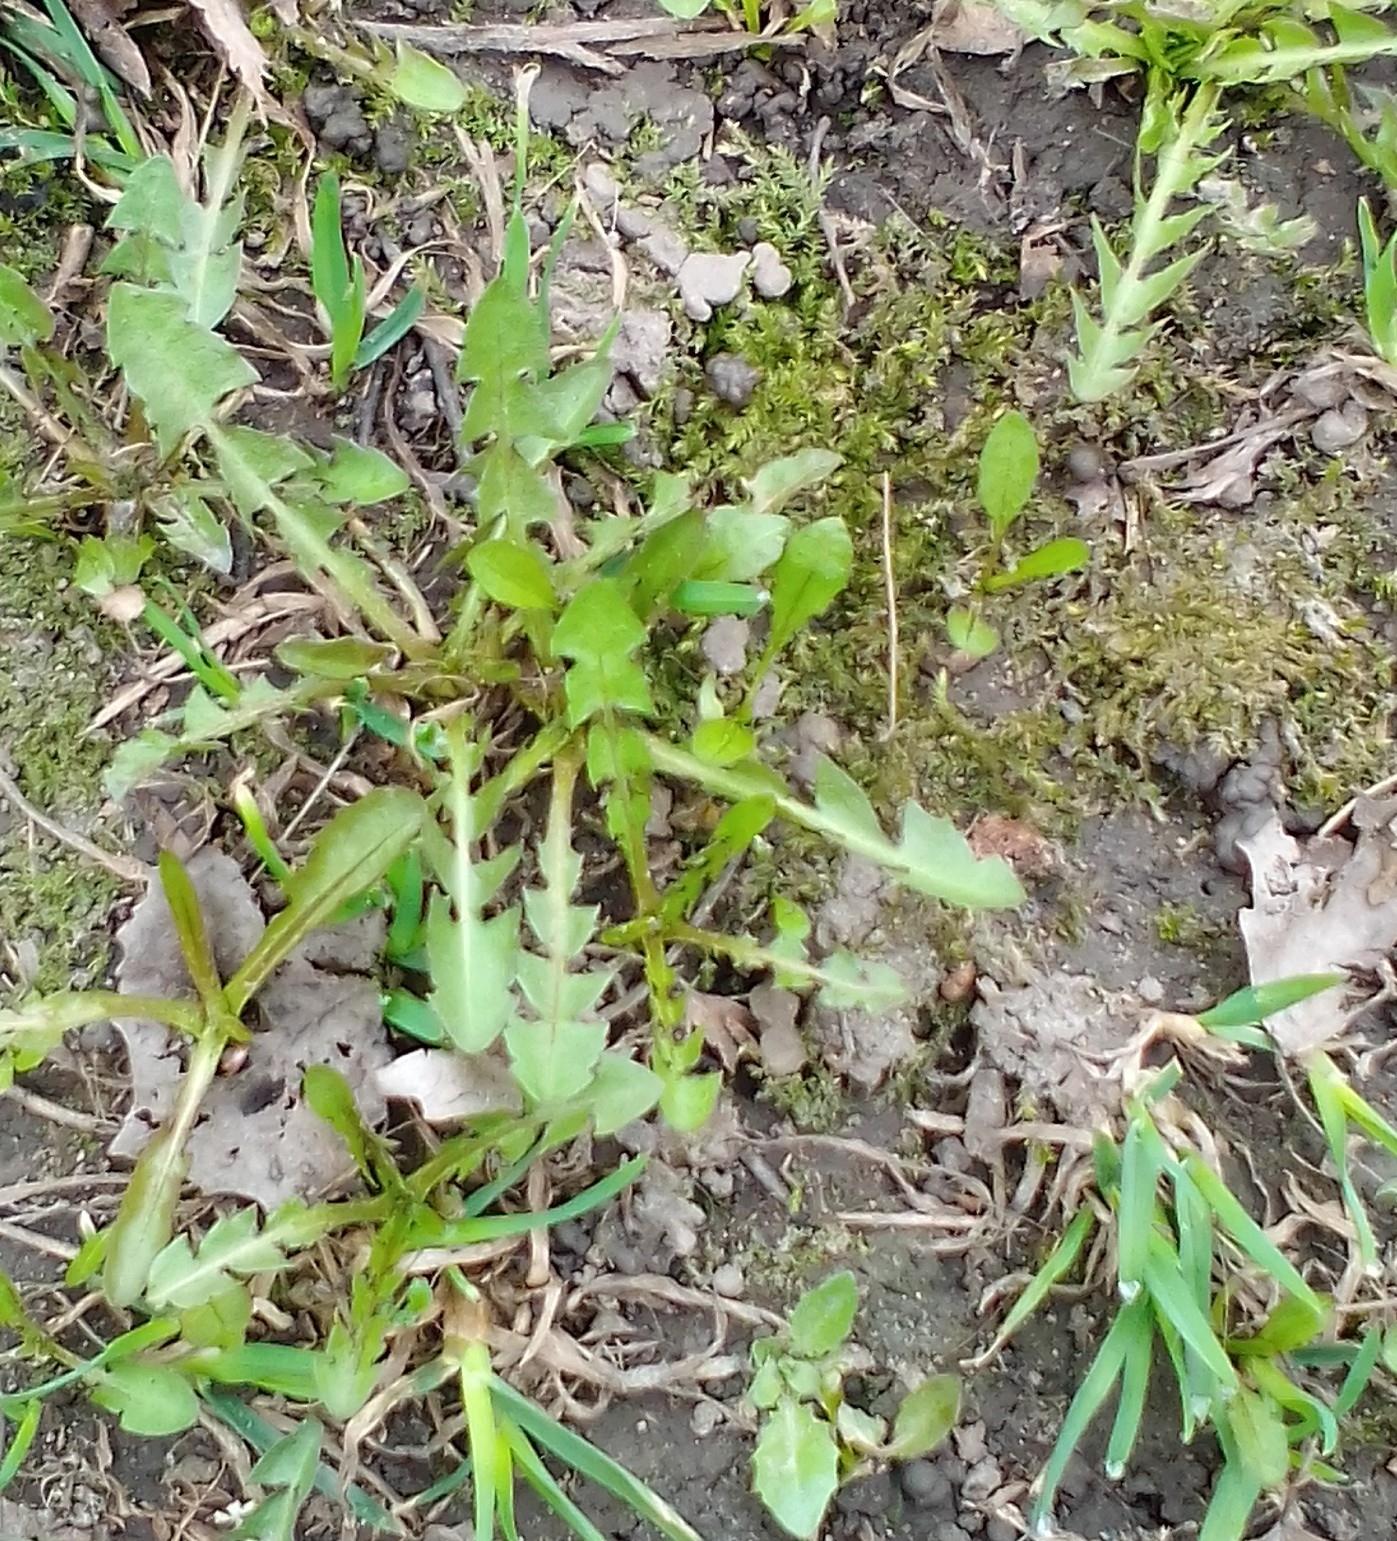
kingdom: Plantae
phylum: Tracheophyta
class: Magnoliopsida
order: Asterales
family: Asteraceae
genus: Taraxacum
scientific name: Taraxacum officinale
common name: Common dandelion
